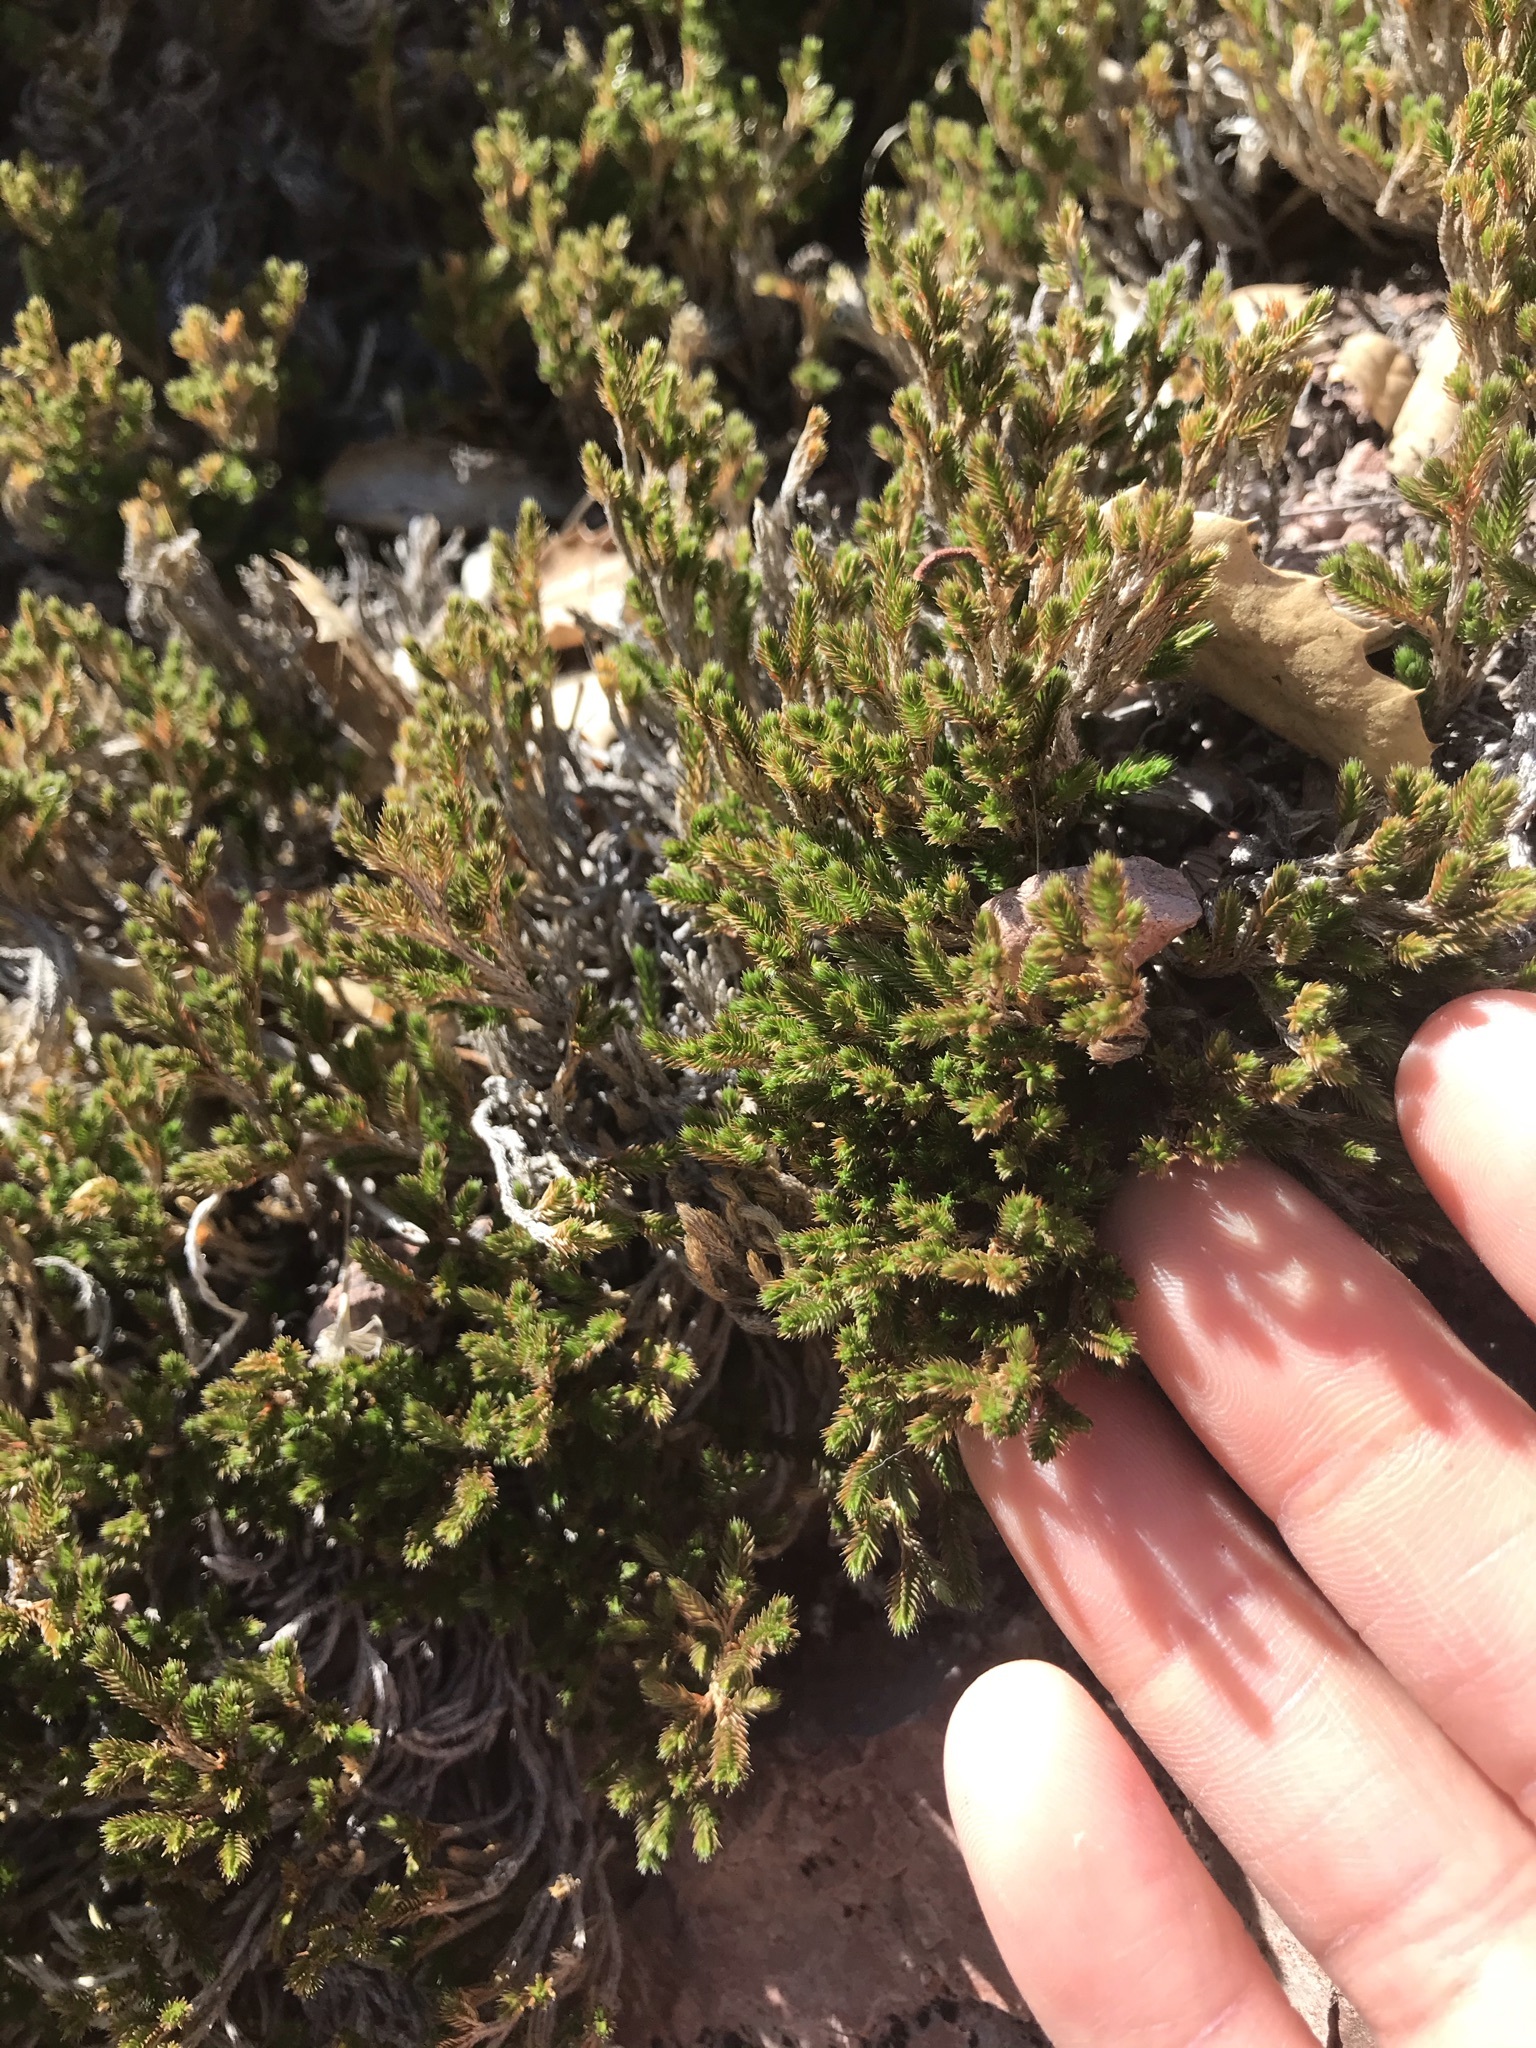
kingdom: Plantae
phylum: Tracheophyta
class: Lycopodiopsida
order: Selaginellales
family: Selaginellaceae
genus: Selaginella
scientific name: Selaginella bigelovii
